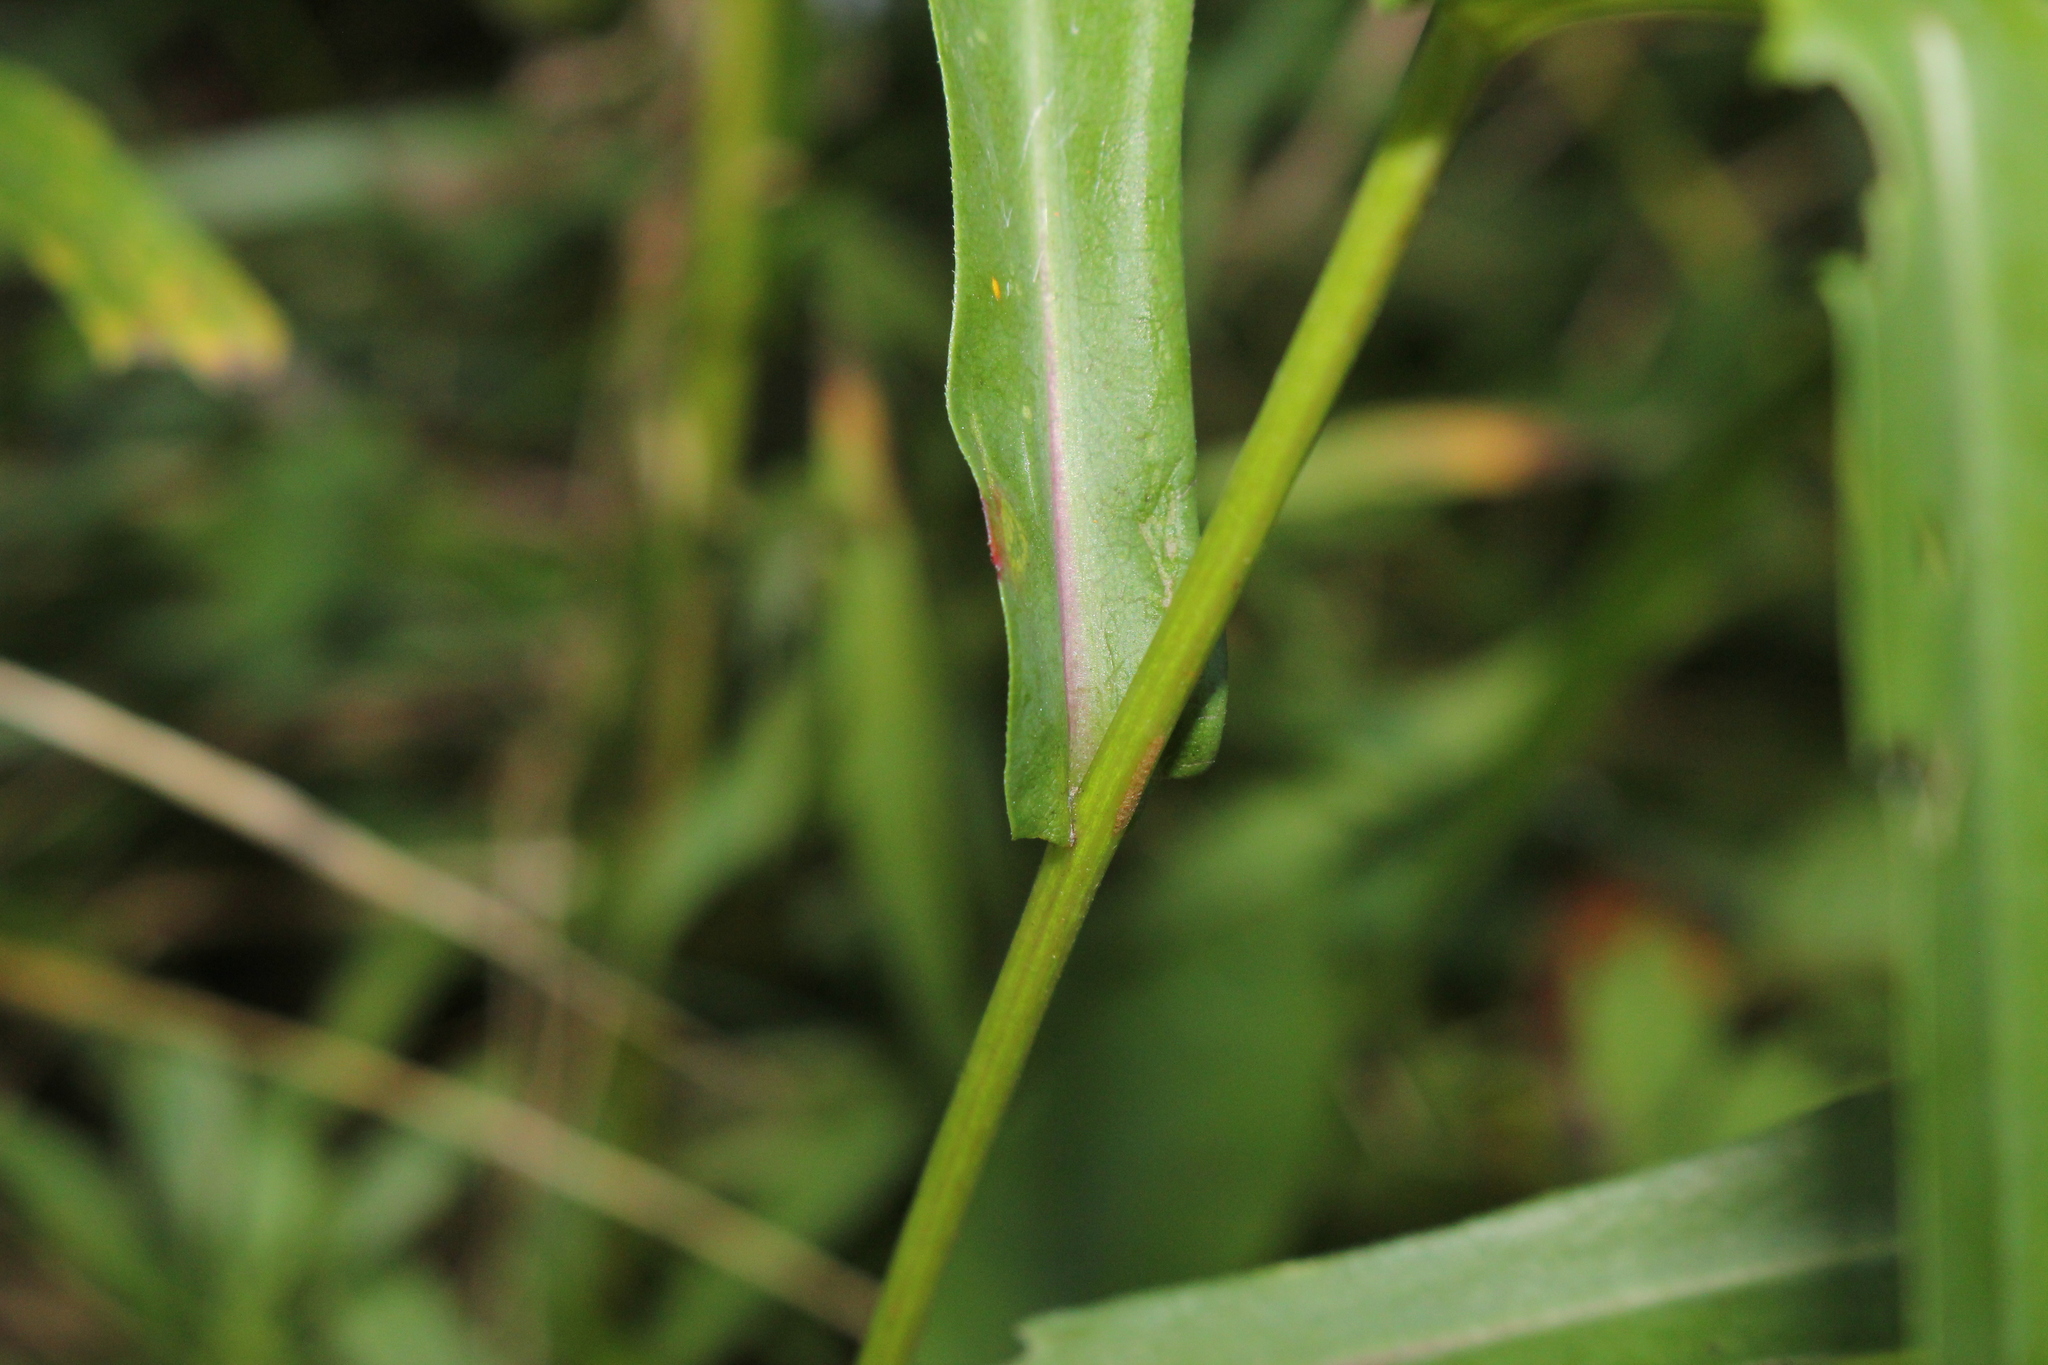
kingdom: Plantae
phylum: Tracheophyta
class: Magnoliopsida
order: Asterales
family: Asteraceae
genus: Symphyotrichum
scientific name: Symphyotrichum laeve
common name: Glaucous aster
